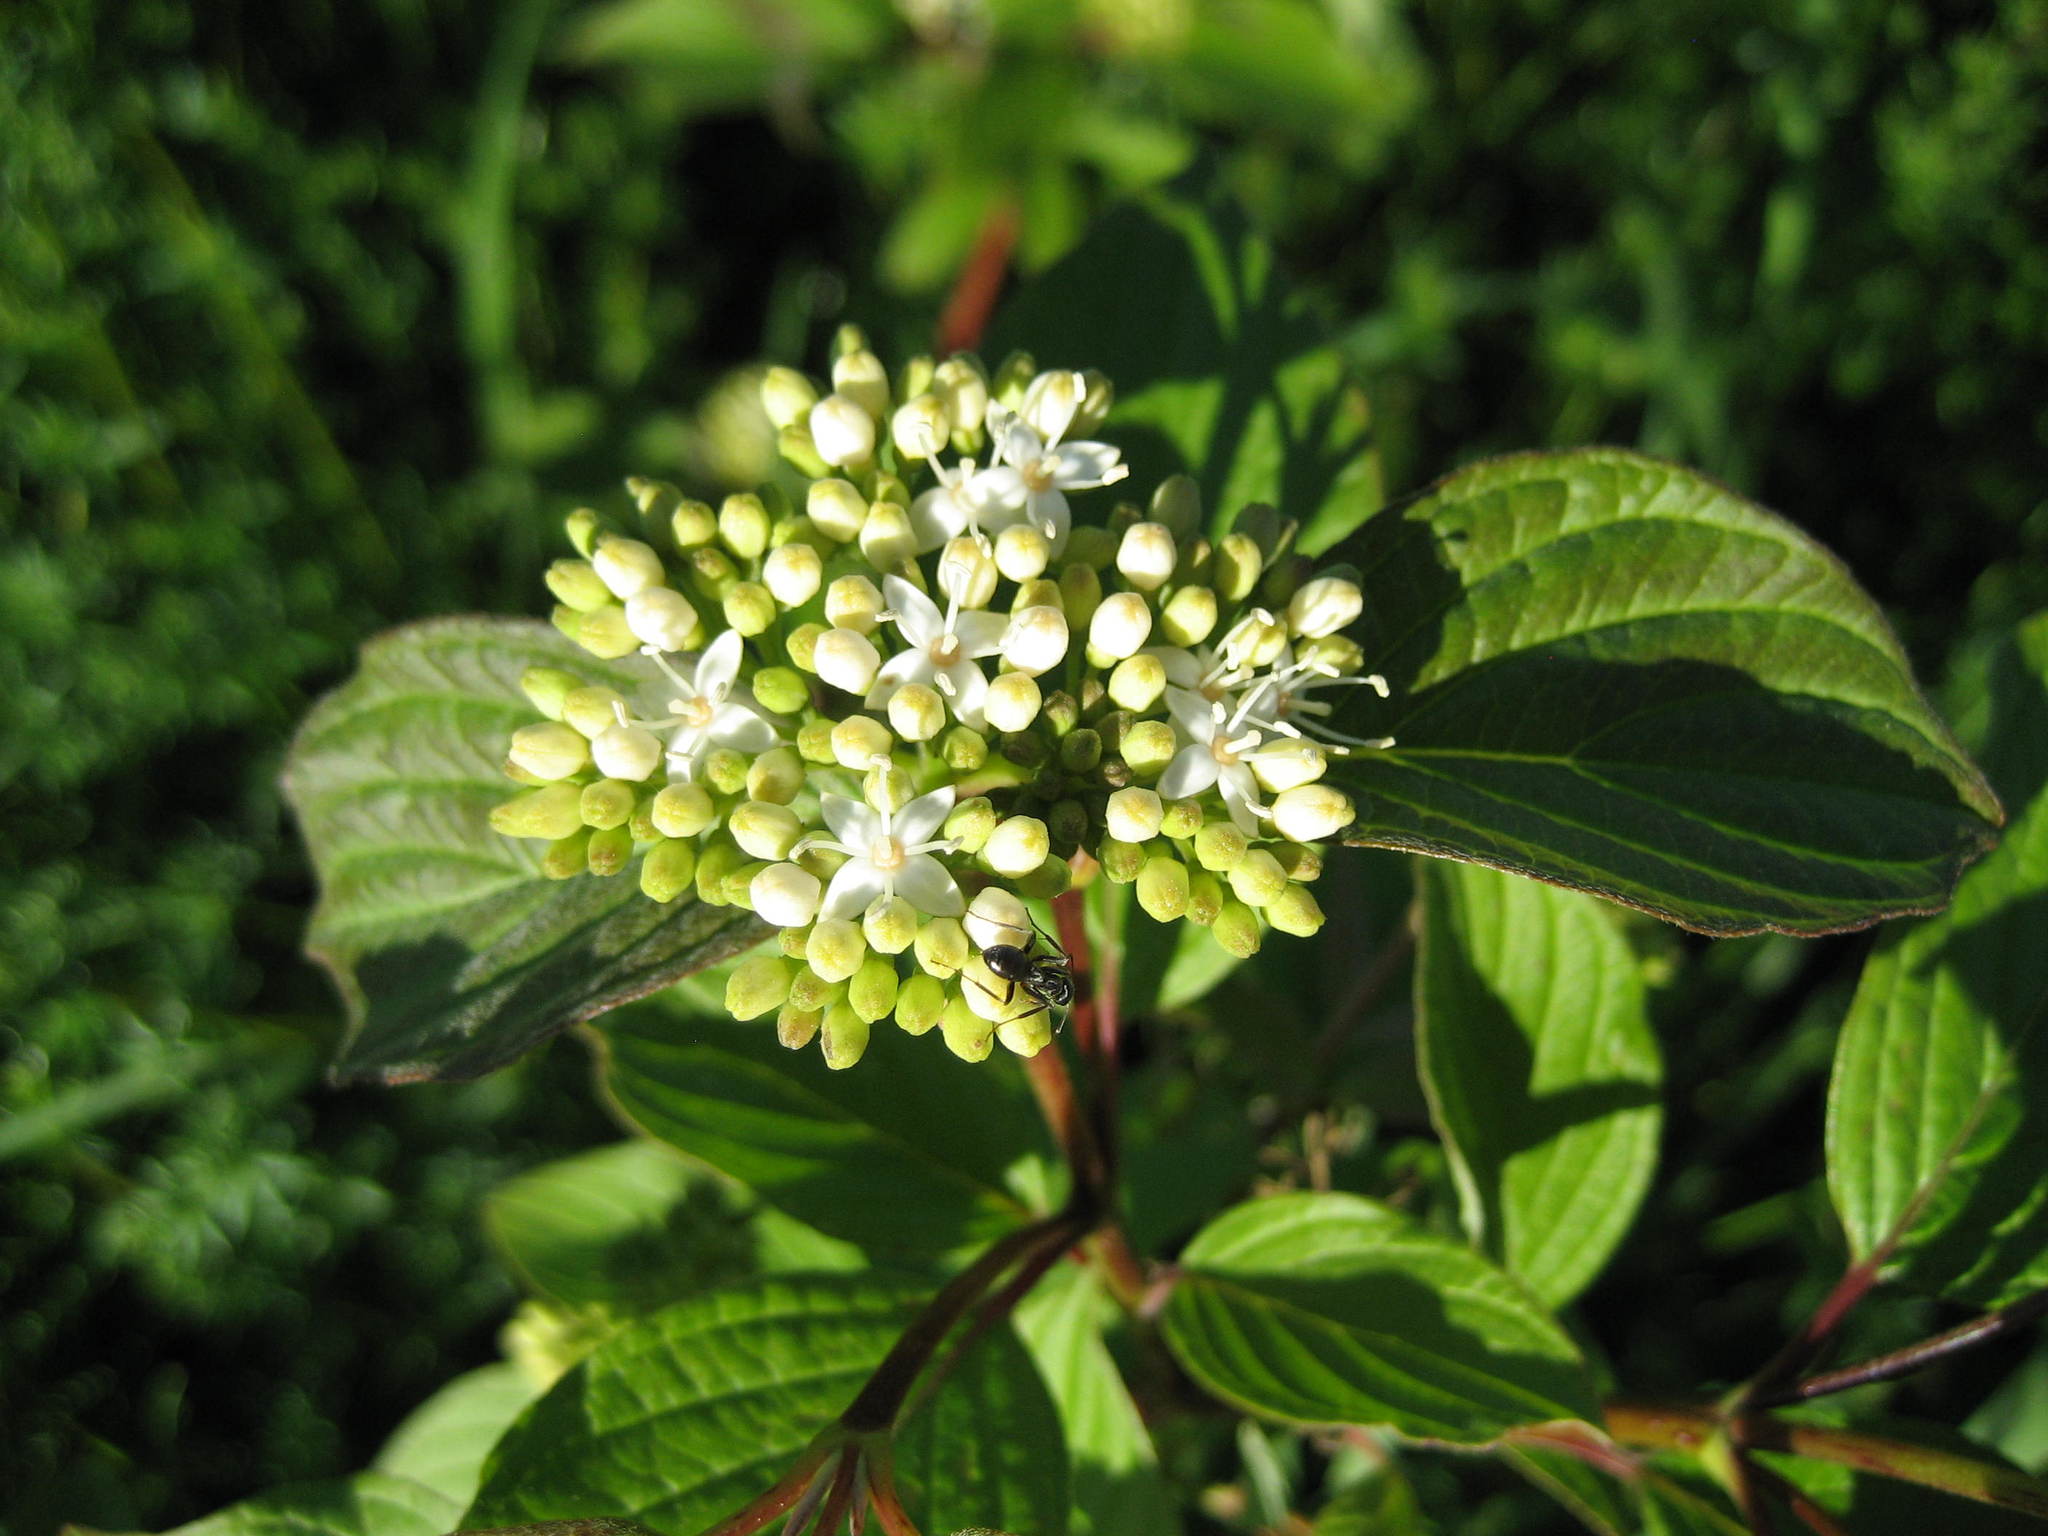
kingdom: Plantae
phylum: Tracheophyta
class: Magnoliopsida
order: Cornales
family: Cornaceae
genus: Cornus
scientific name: Cornus sericea
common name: Red-osier dogwood
